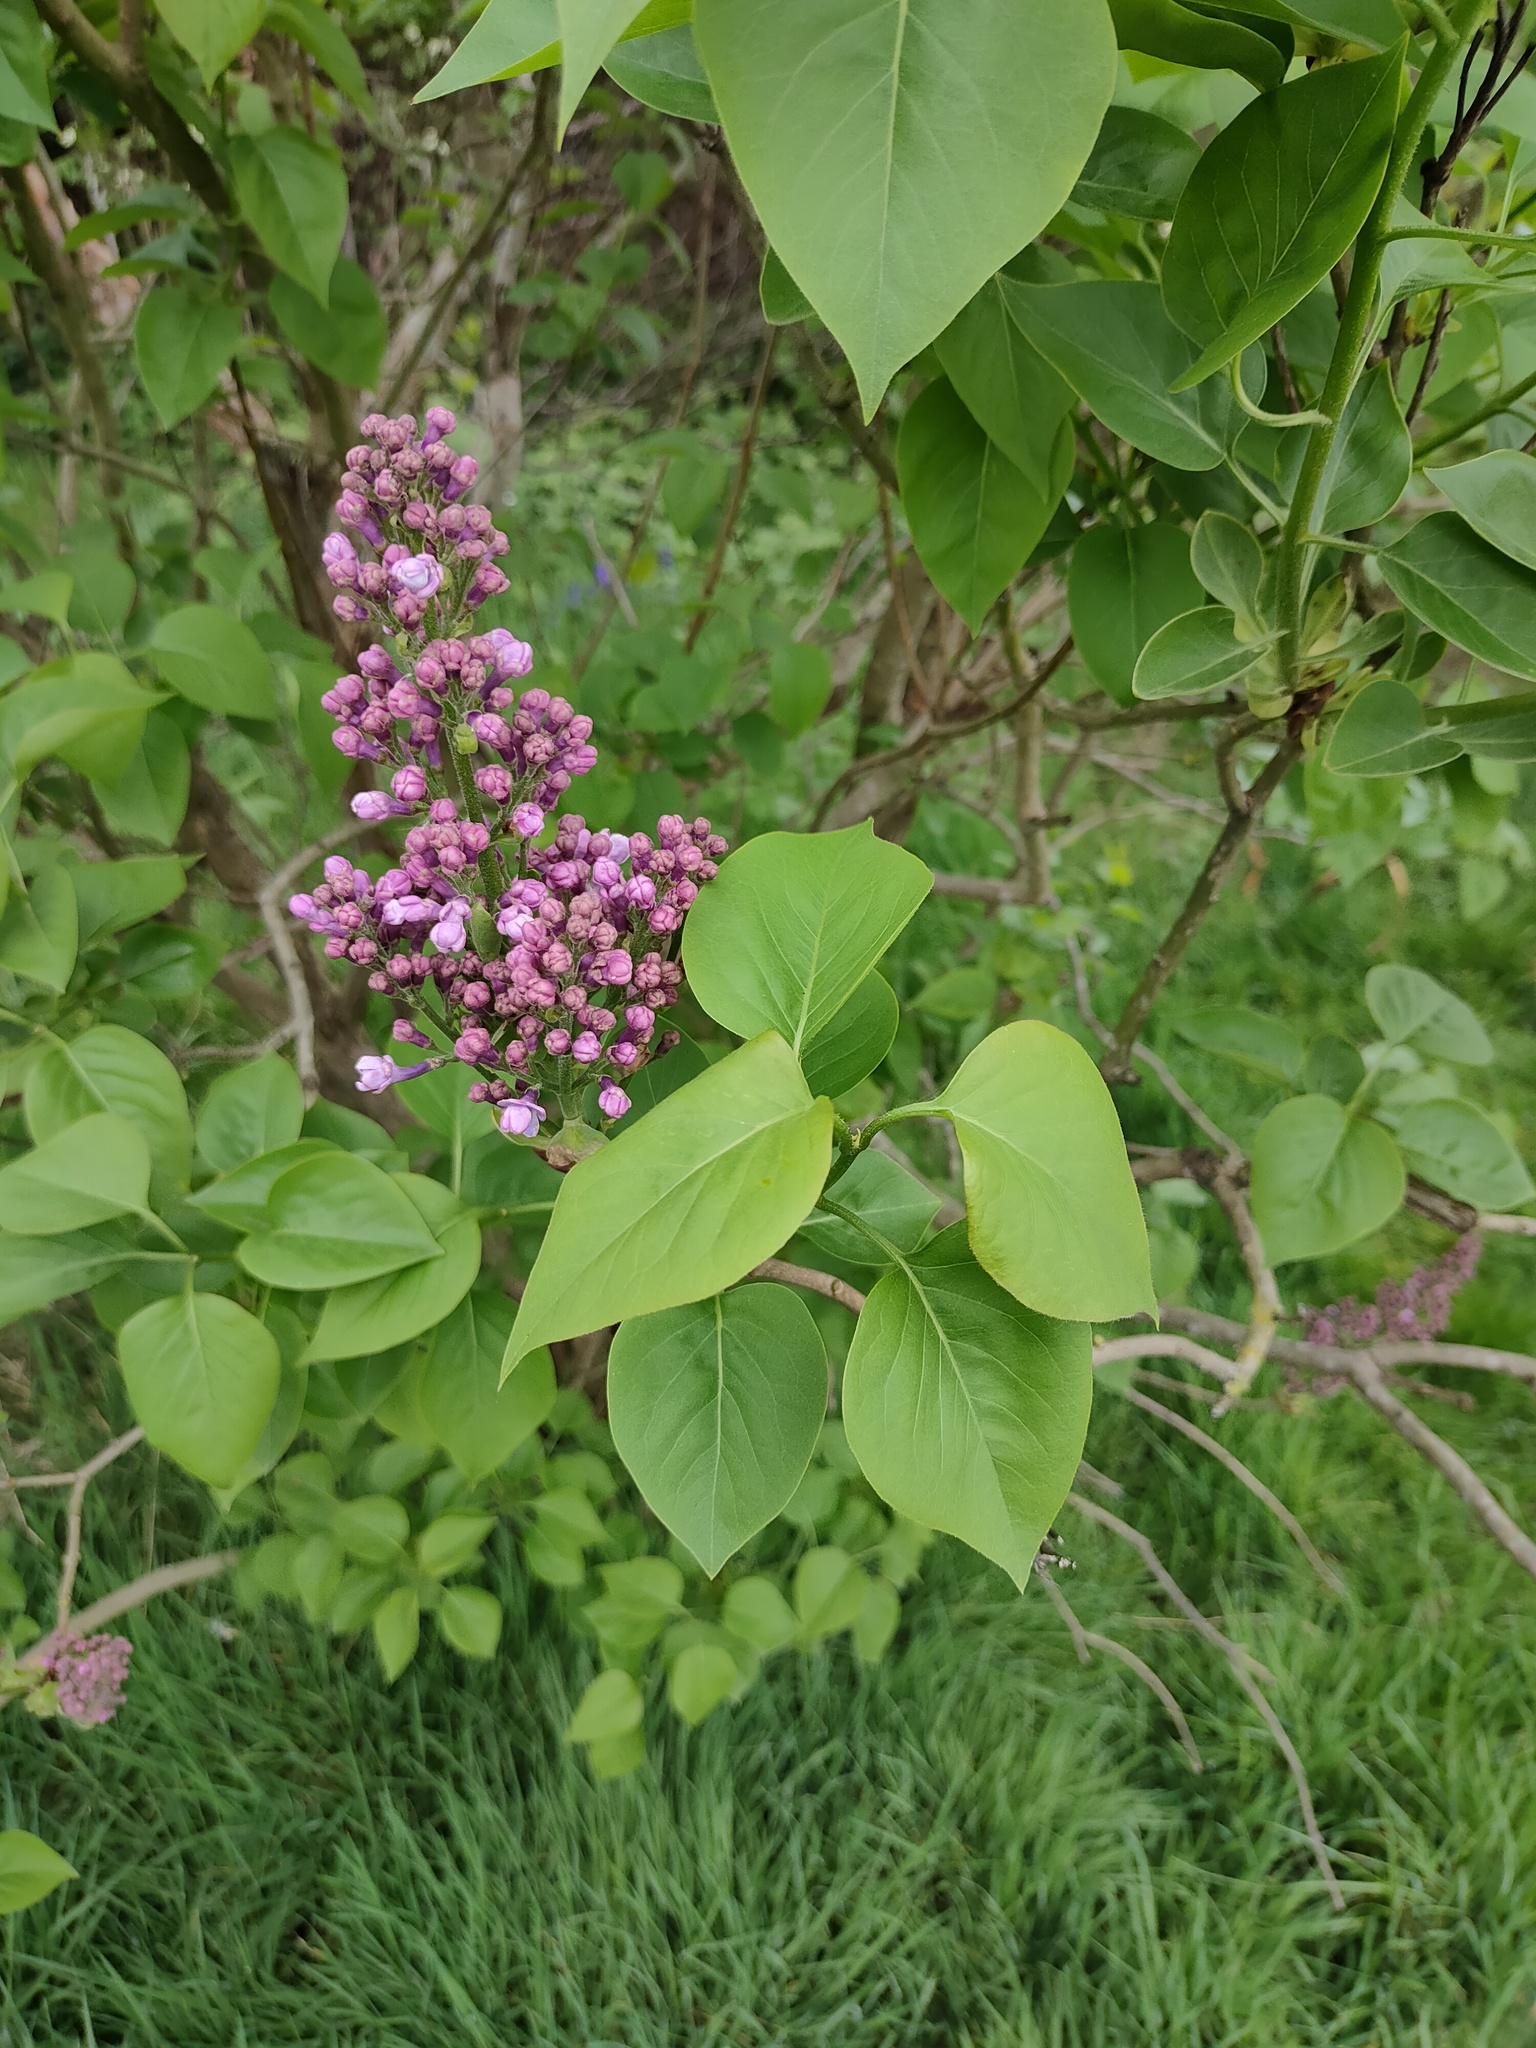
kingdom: Plantae
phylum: Tracheophyta
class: Magnoliopsida
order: Lamiales
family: Oleaceae
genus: Syringa
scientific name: Syringa vulgaris
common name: Common lilac
